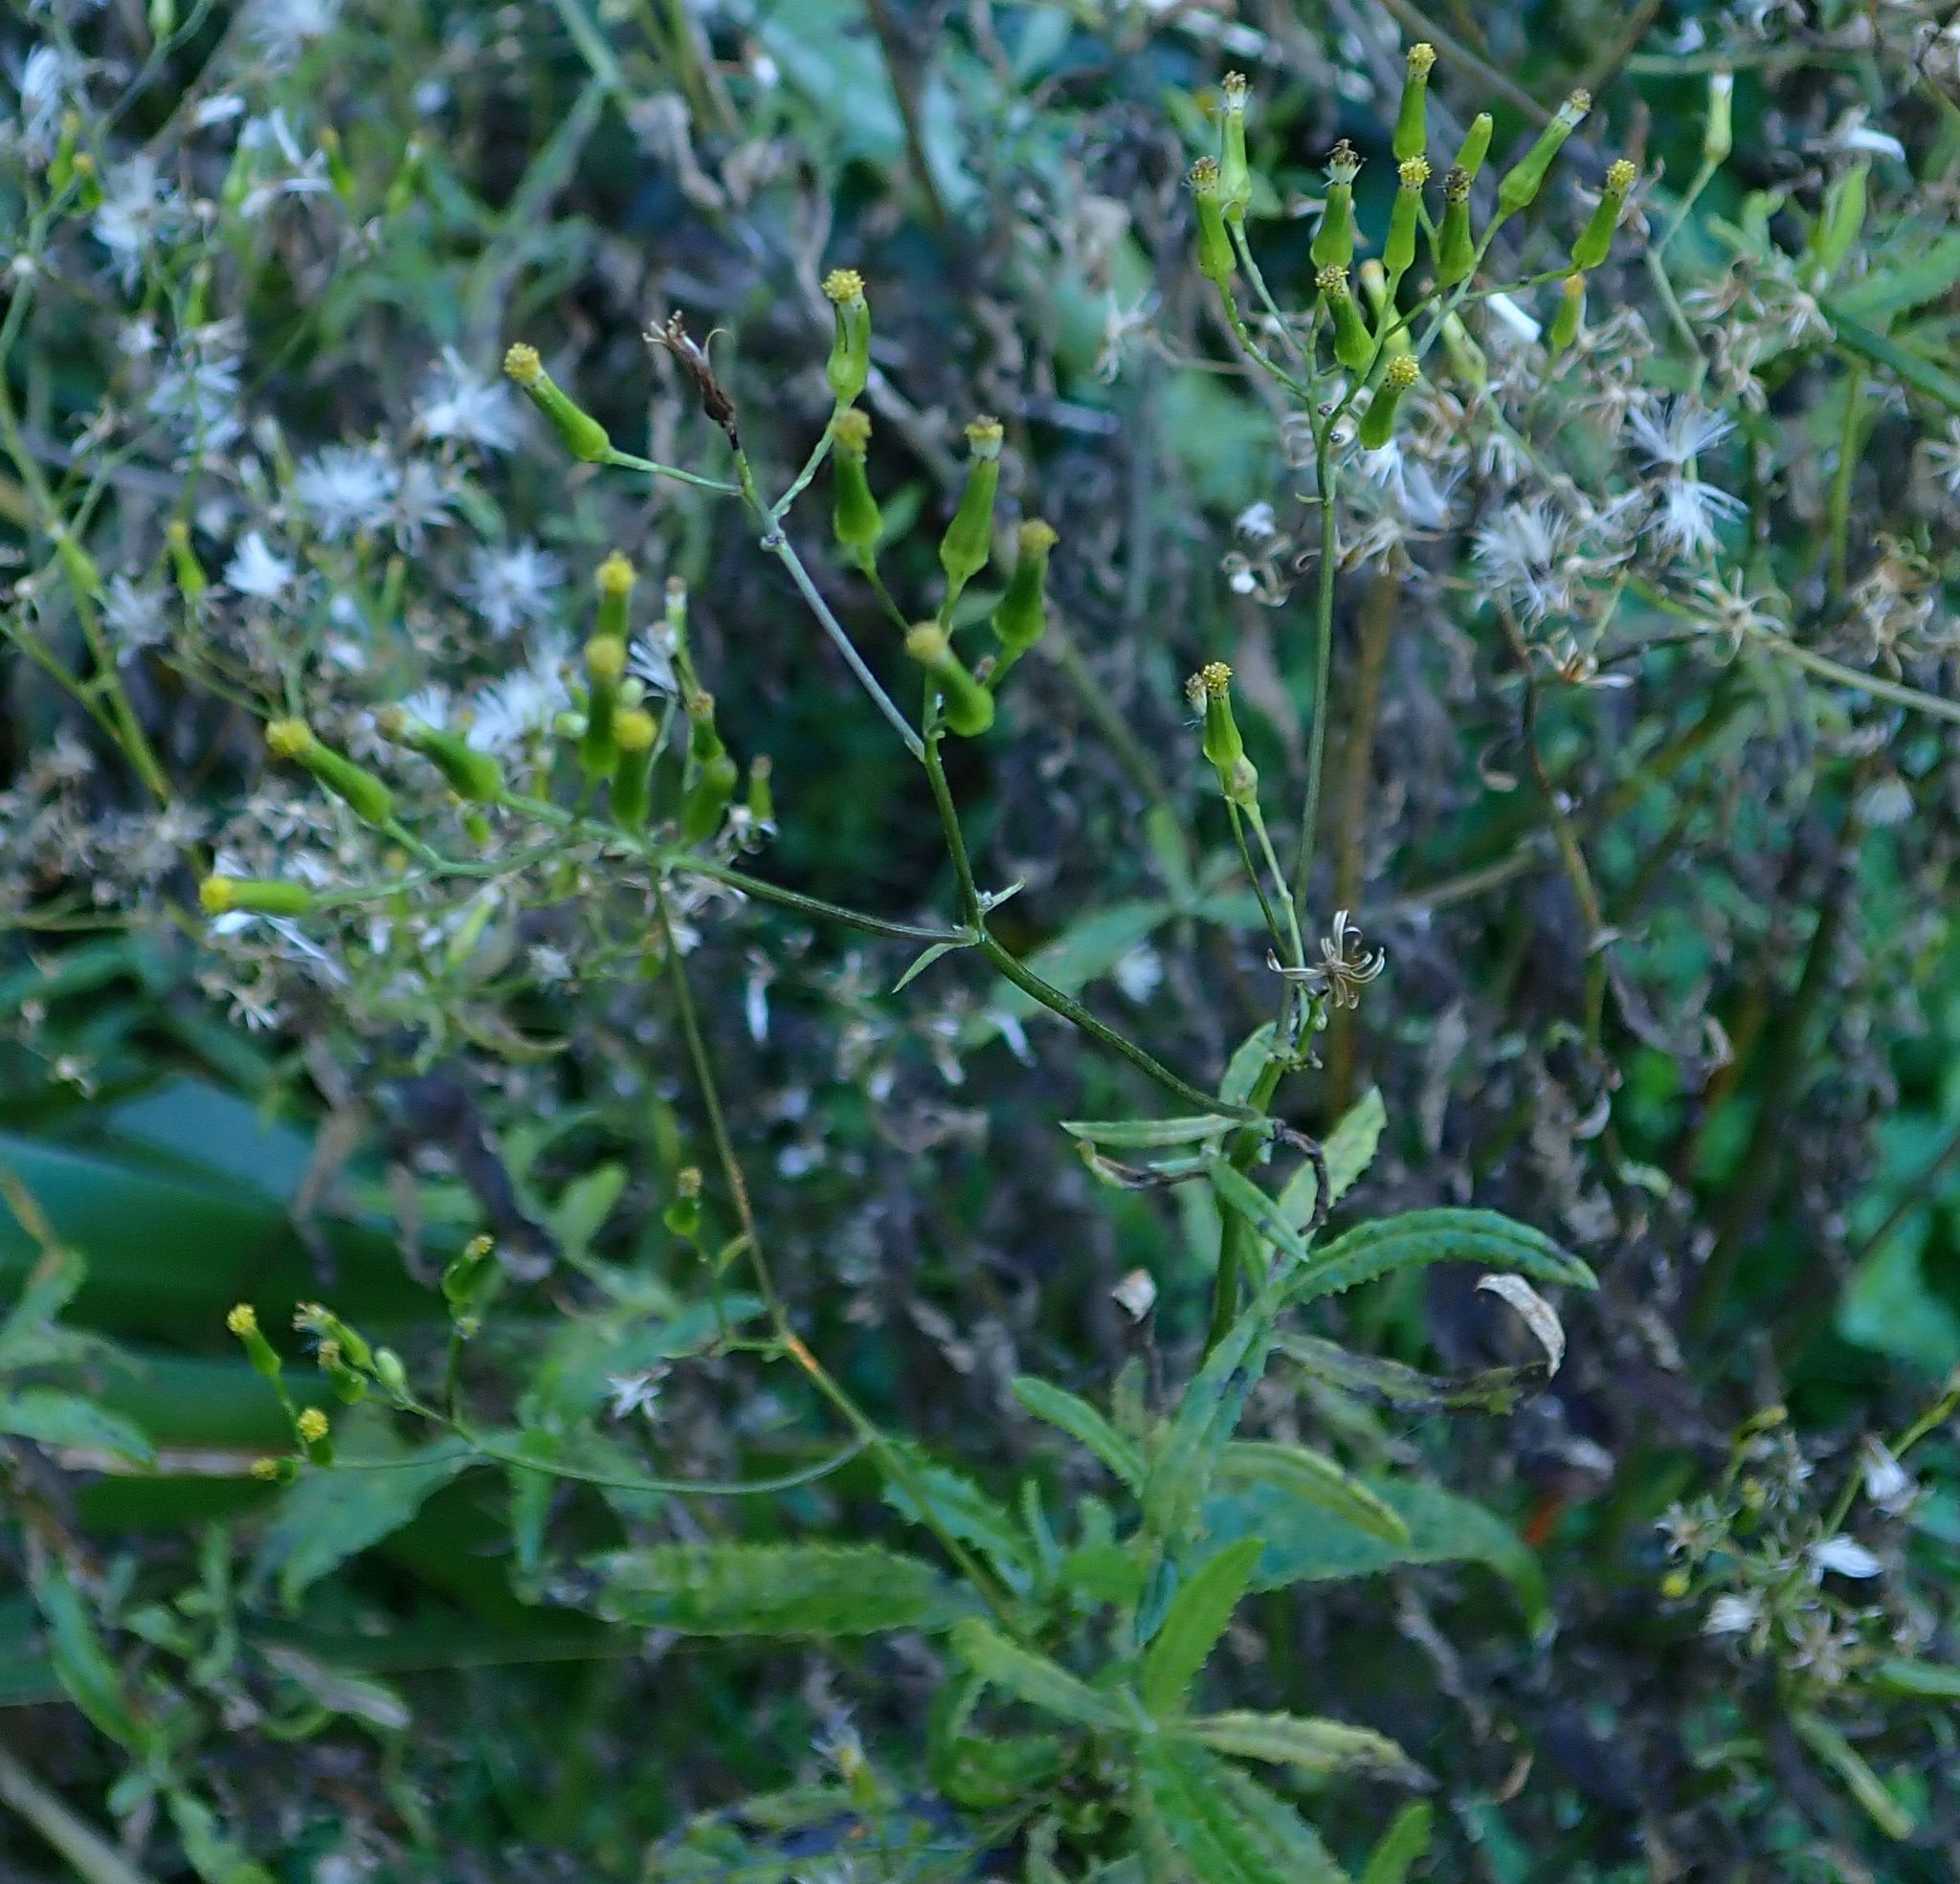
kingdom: Plantae
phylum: Tracheophyta
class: Magnoliopsida
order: Asterales
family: Asteraceae
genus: Senecio
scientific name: Senecio minimus
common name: Toothed fireweed
